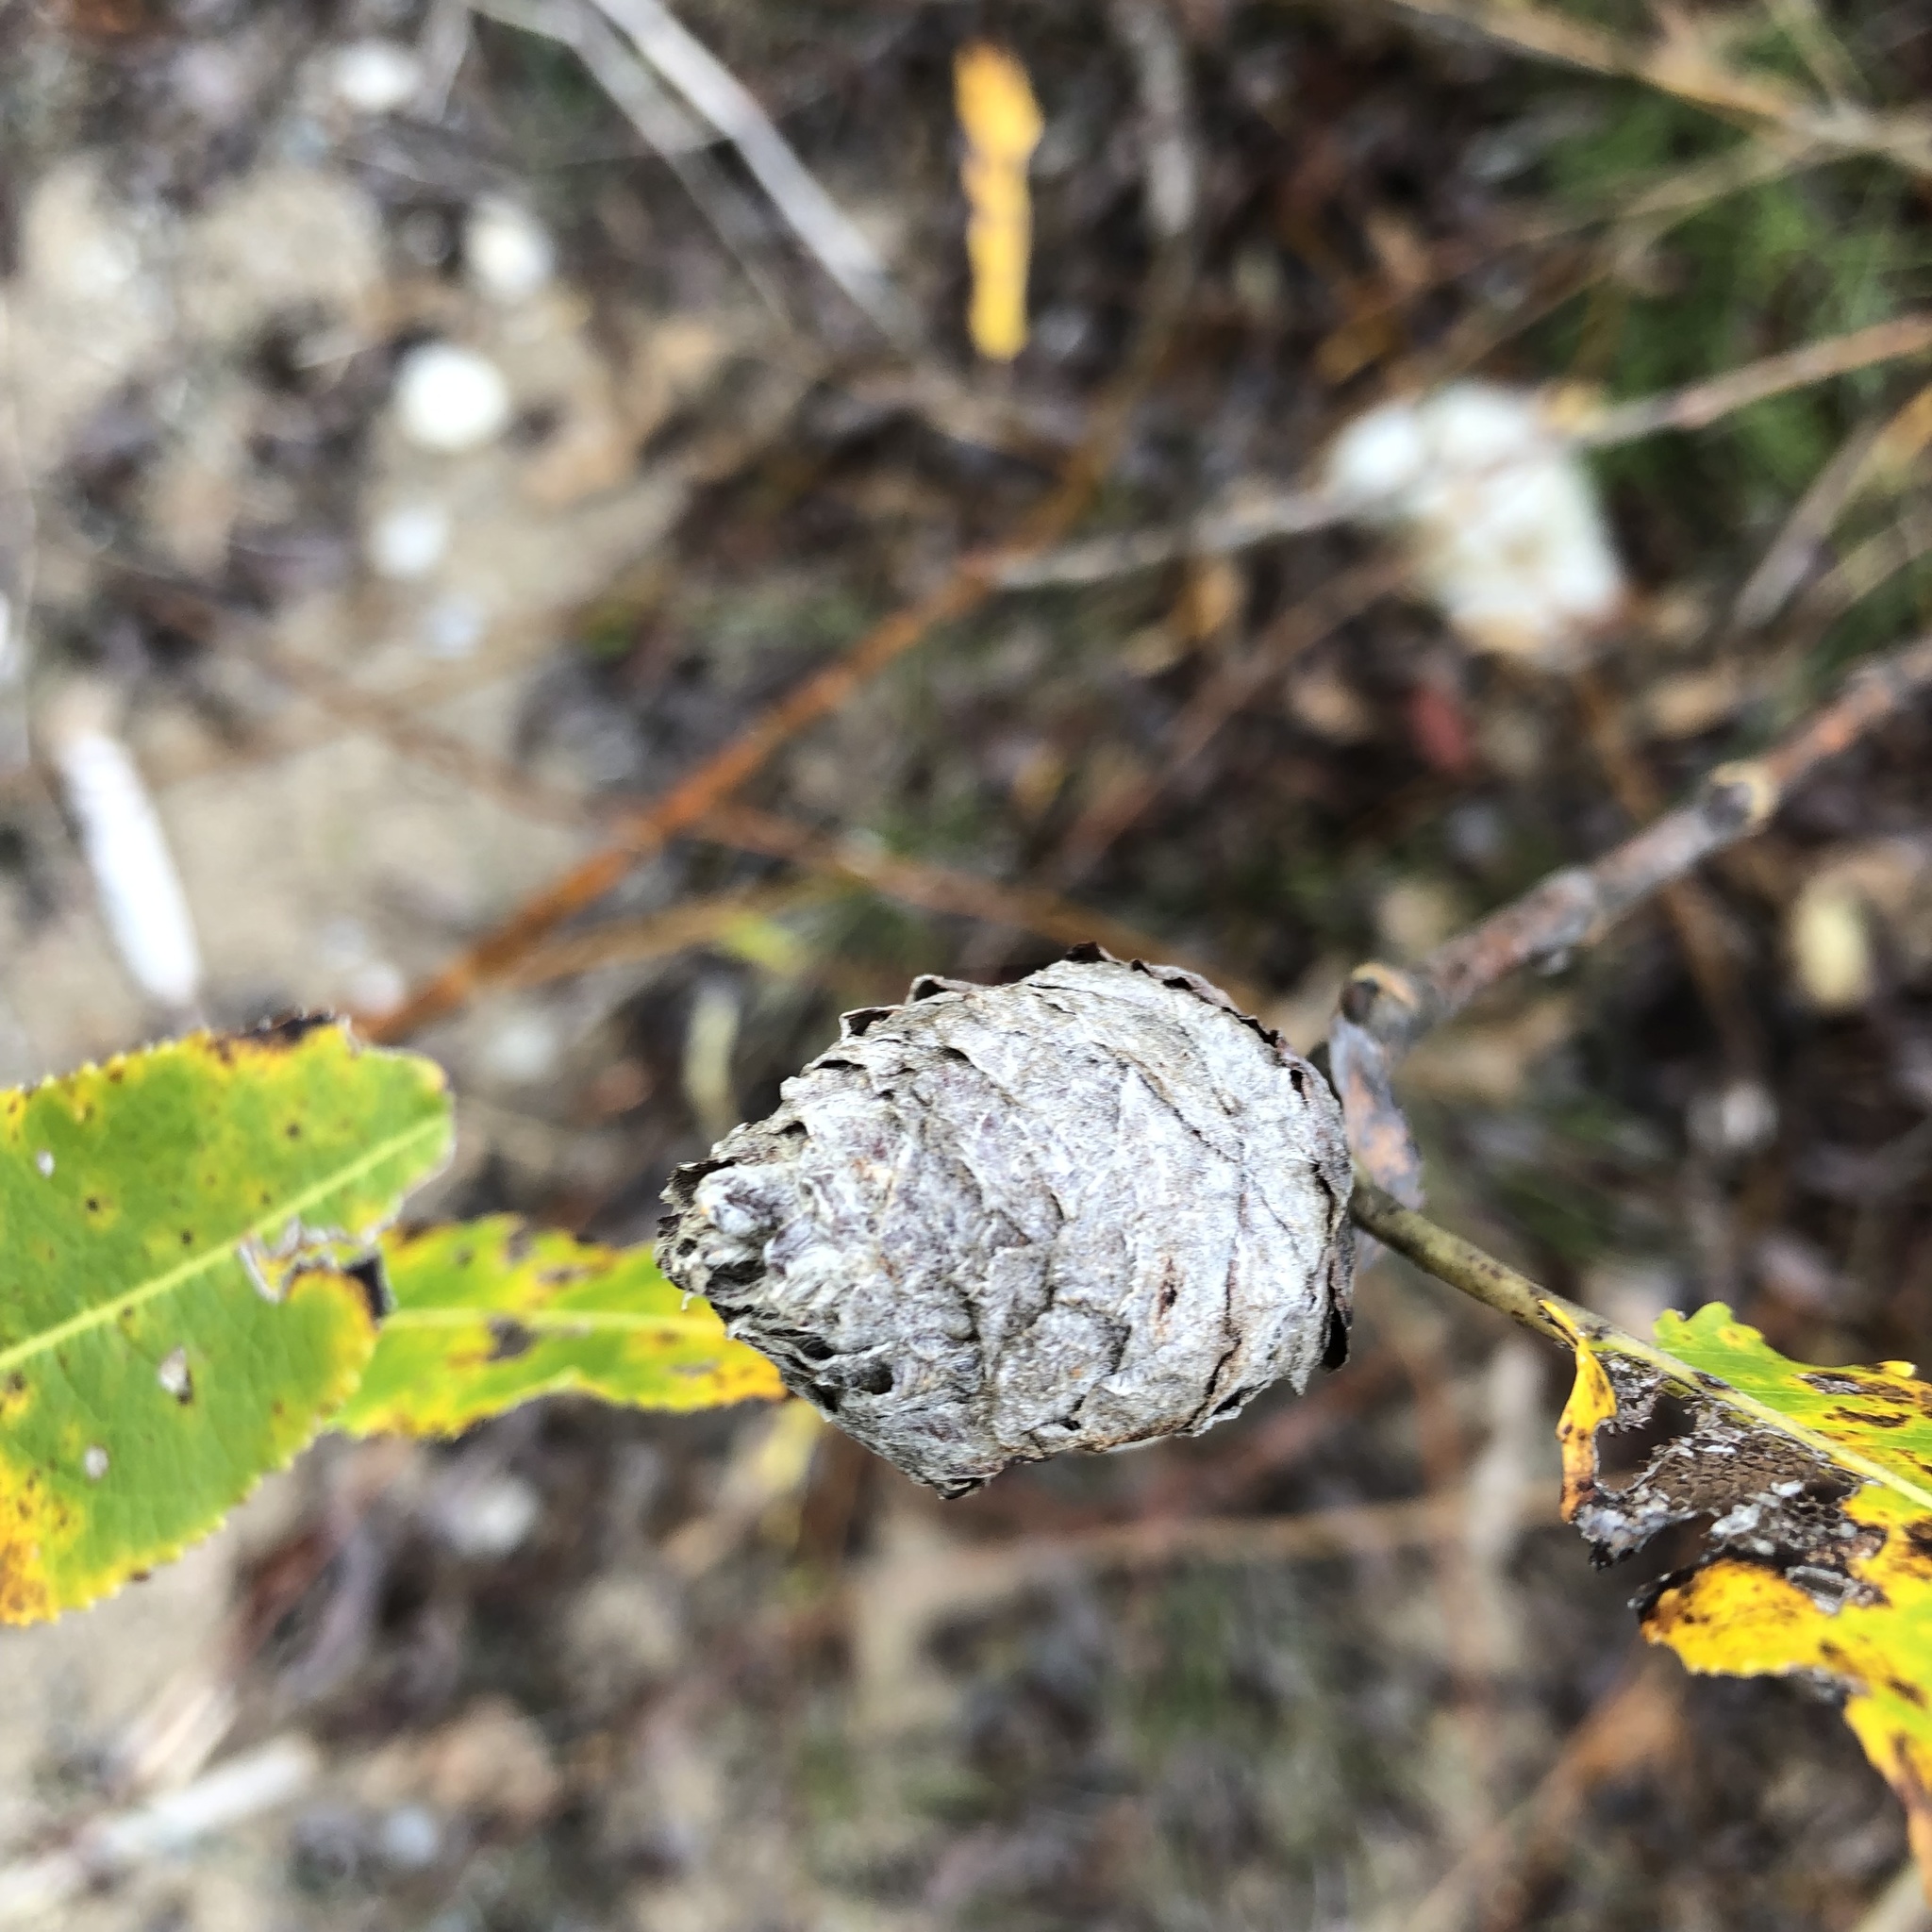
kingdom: Animalia
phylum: Arthropoda
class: Insecta
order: Diptera
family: Cecidomyiidae
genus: Rabdophaga
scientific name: Rabdophaga strobiloides
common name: Willow pinecone gall midge
